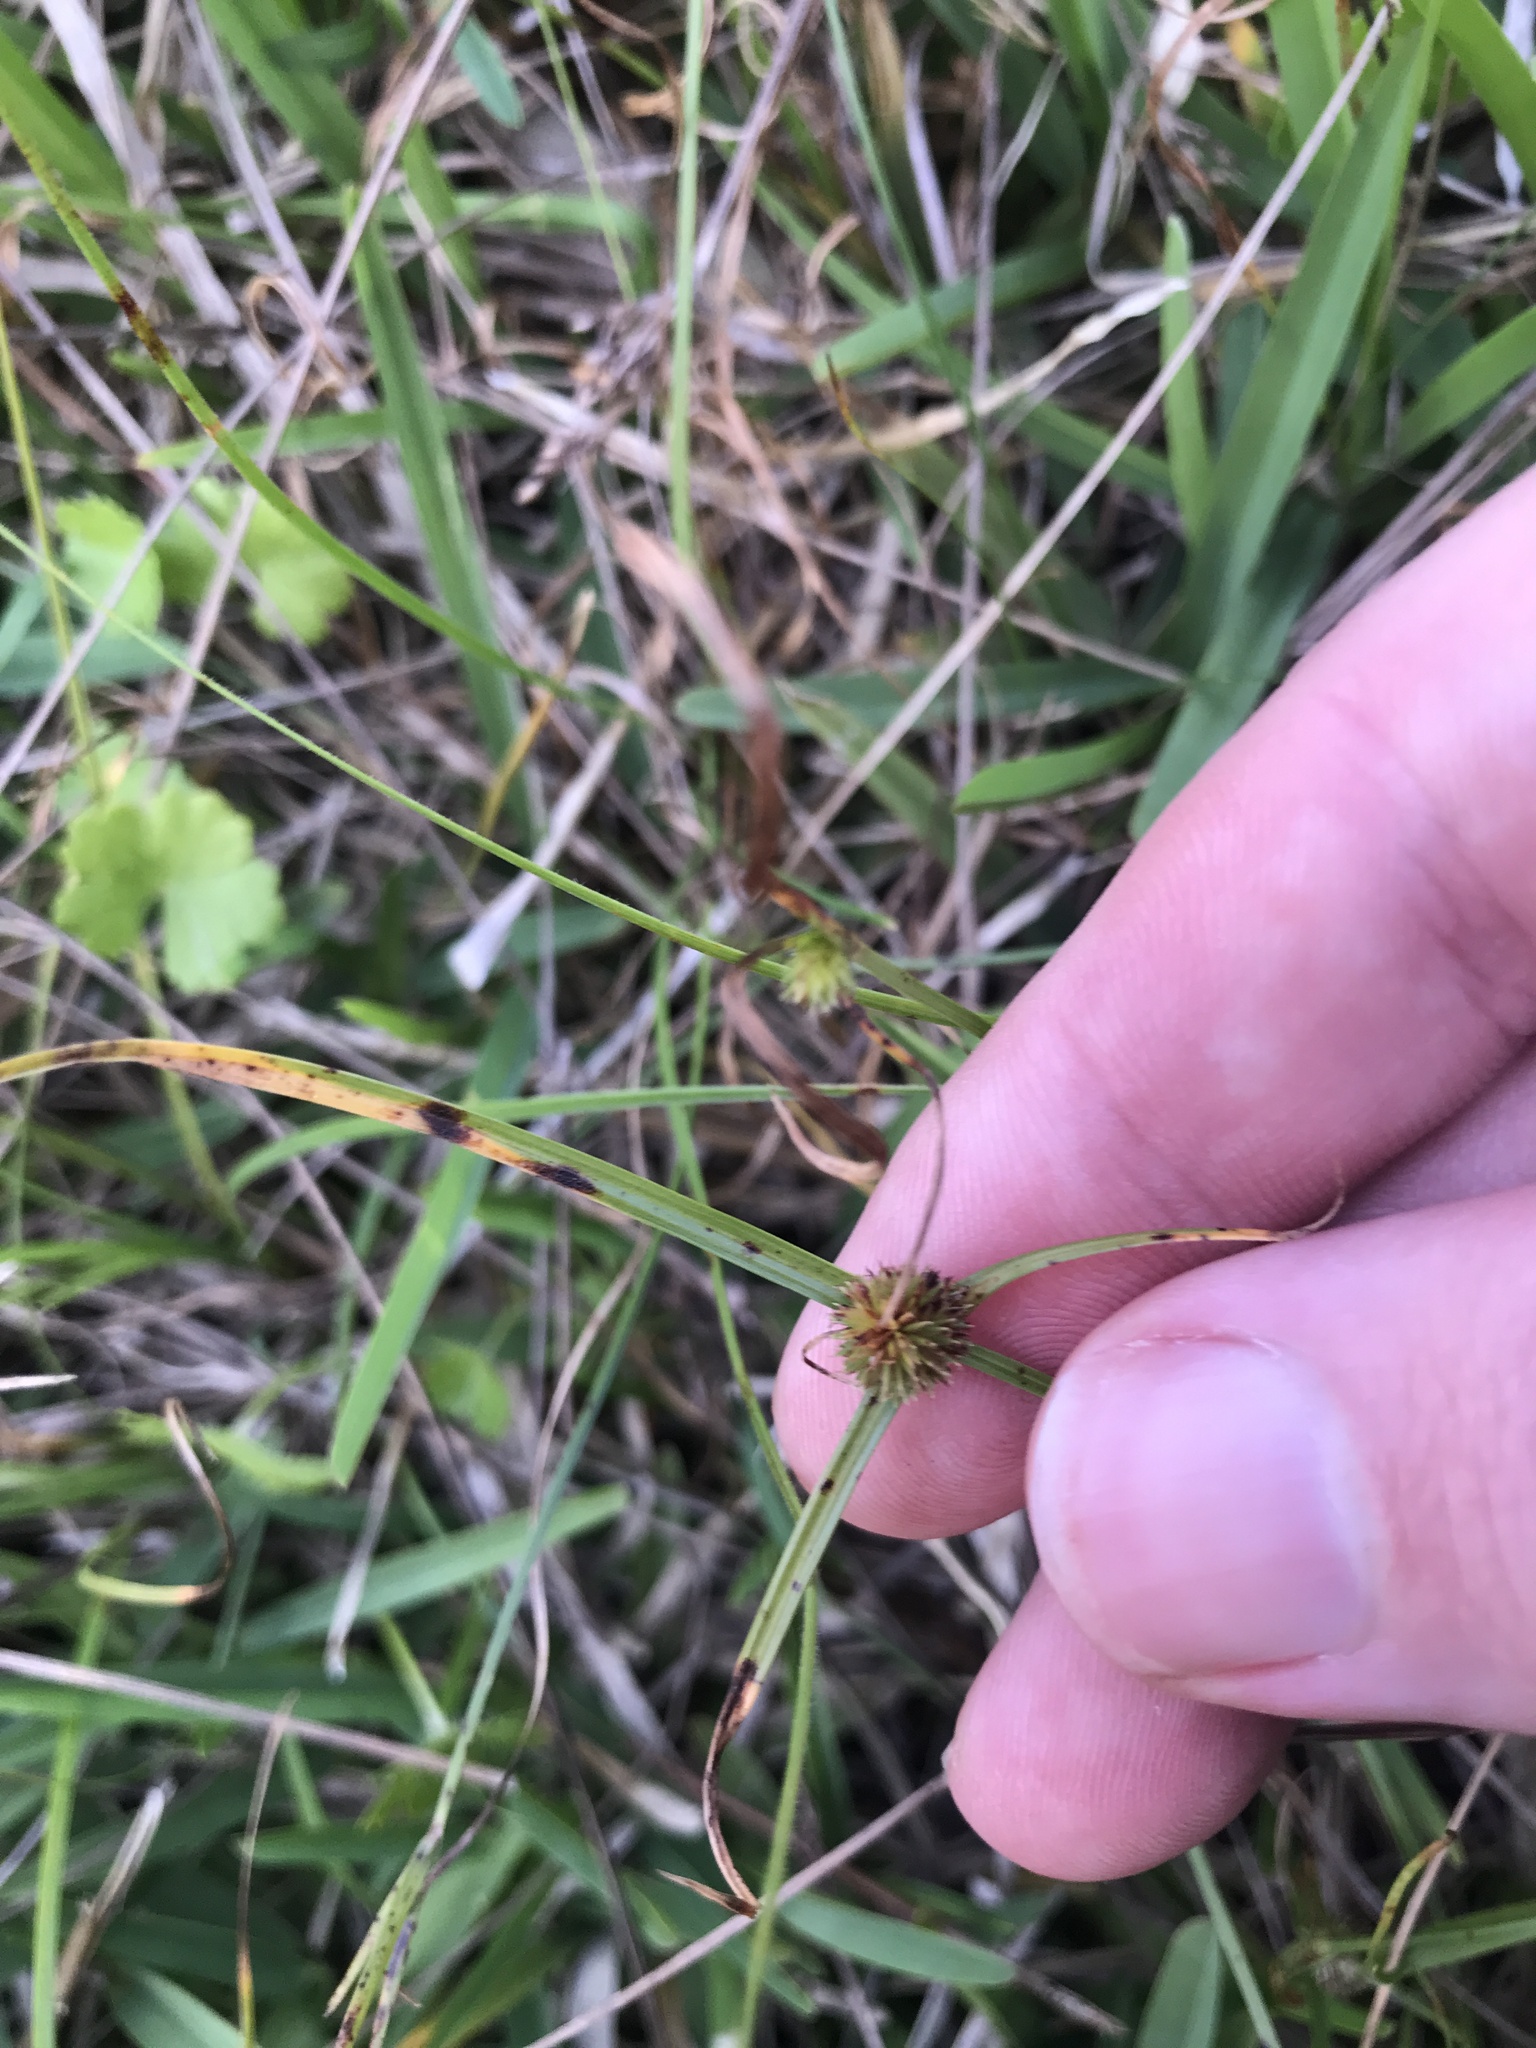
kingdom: Plantae
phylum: Tracheophyta
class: Liliopsida
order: Poales
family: Cyperaceae
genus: Cyperus
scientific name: Cyperus brevifolius
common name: Globe kyllinga
